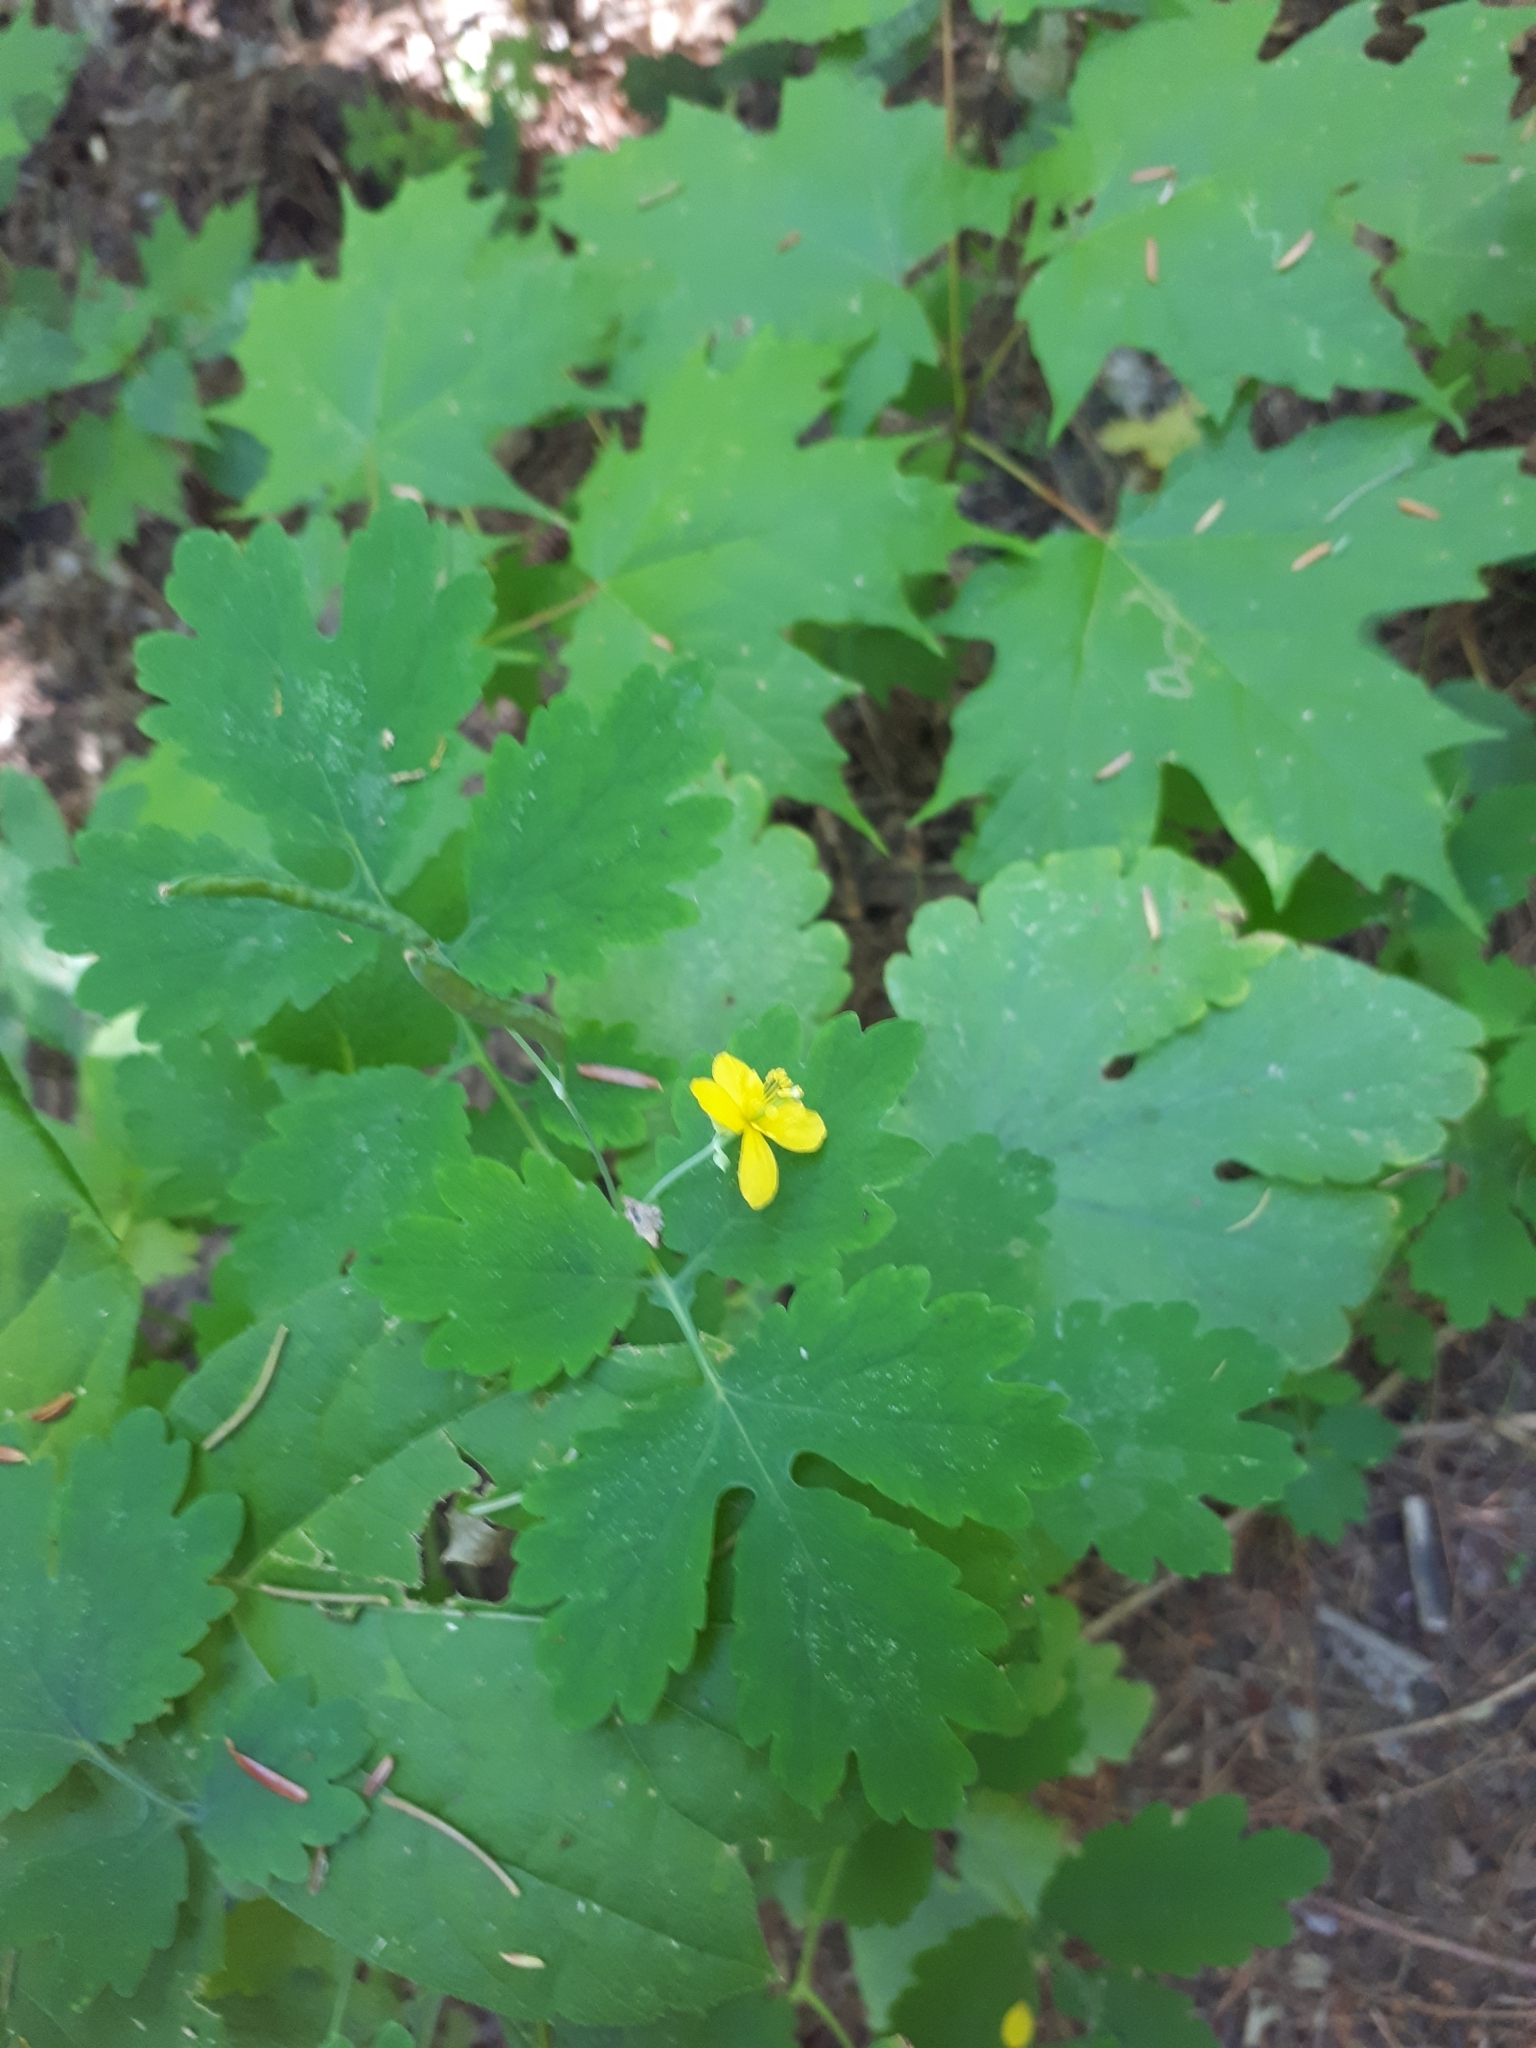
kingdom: Plantae
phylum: Tracheophyta
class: Magnoliopsida
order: Ranunculales
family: Papaveraceae
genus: Chelidonium
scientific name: Chelidonium majus
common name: Greater celandine
